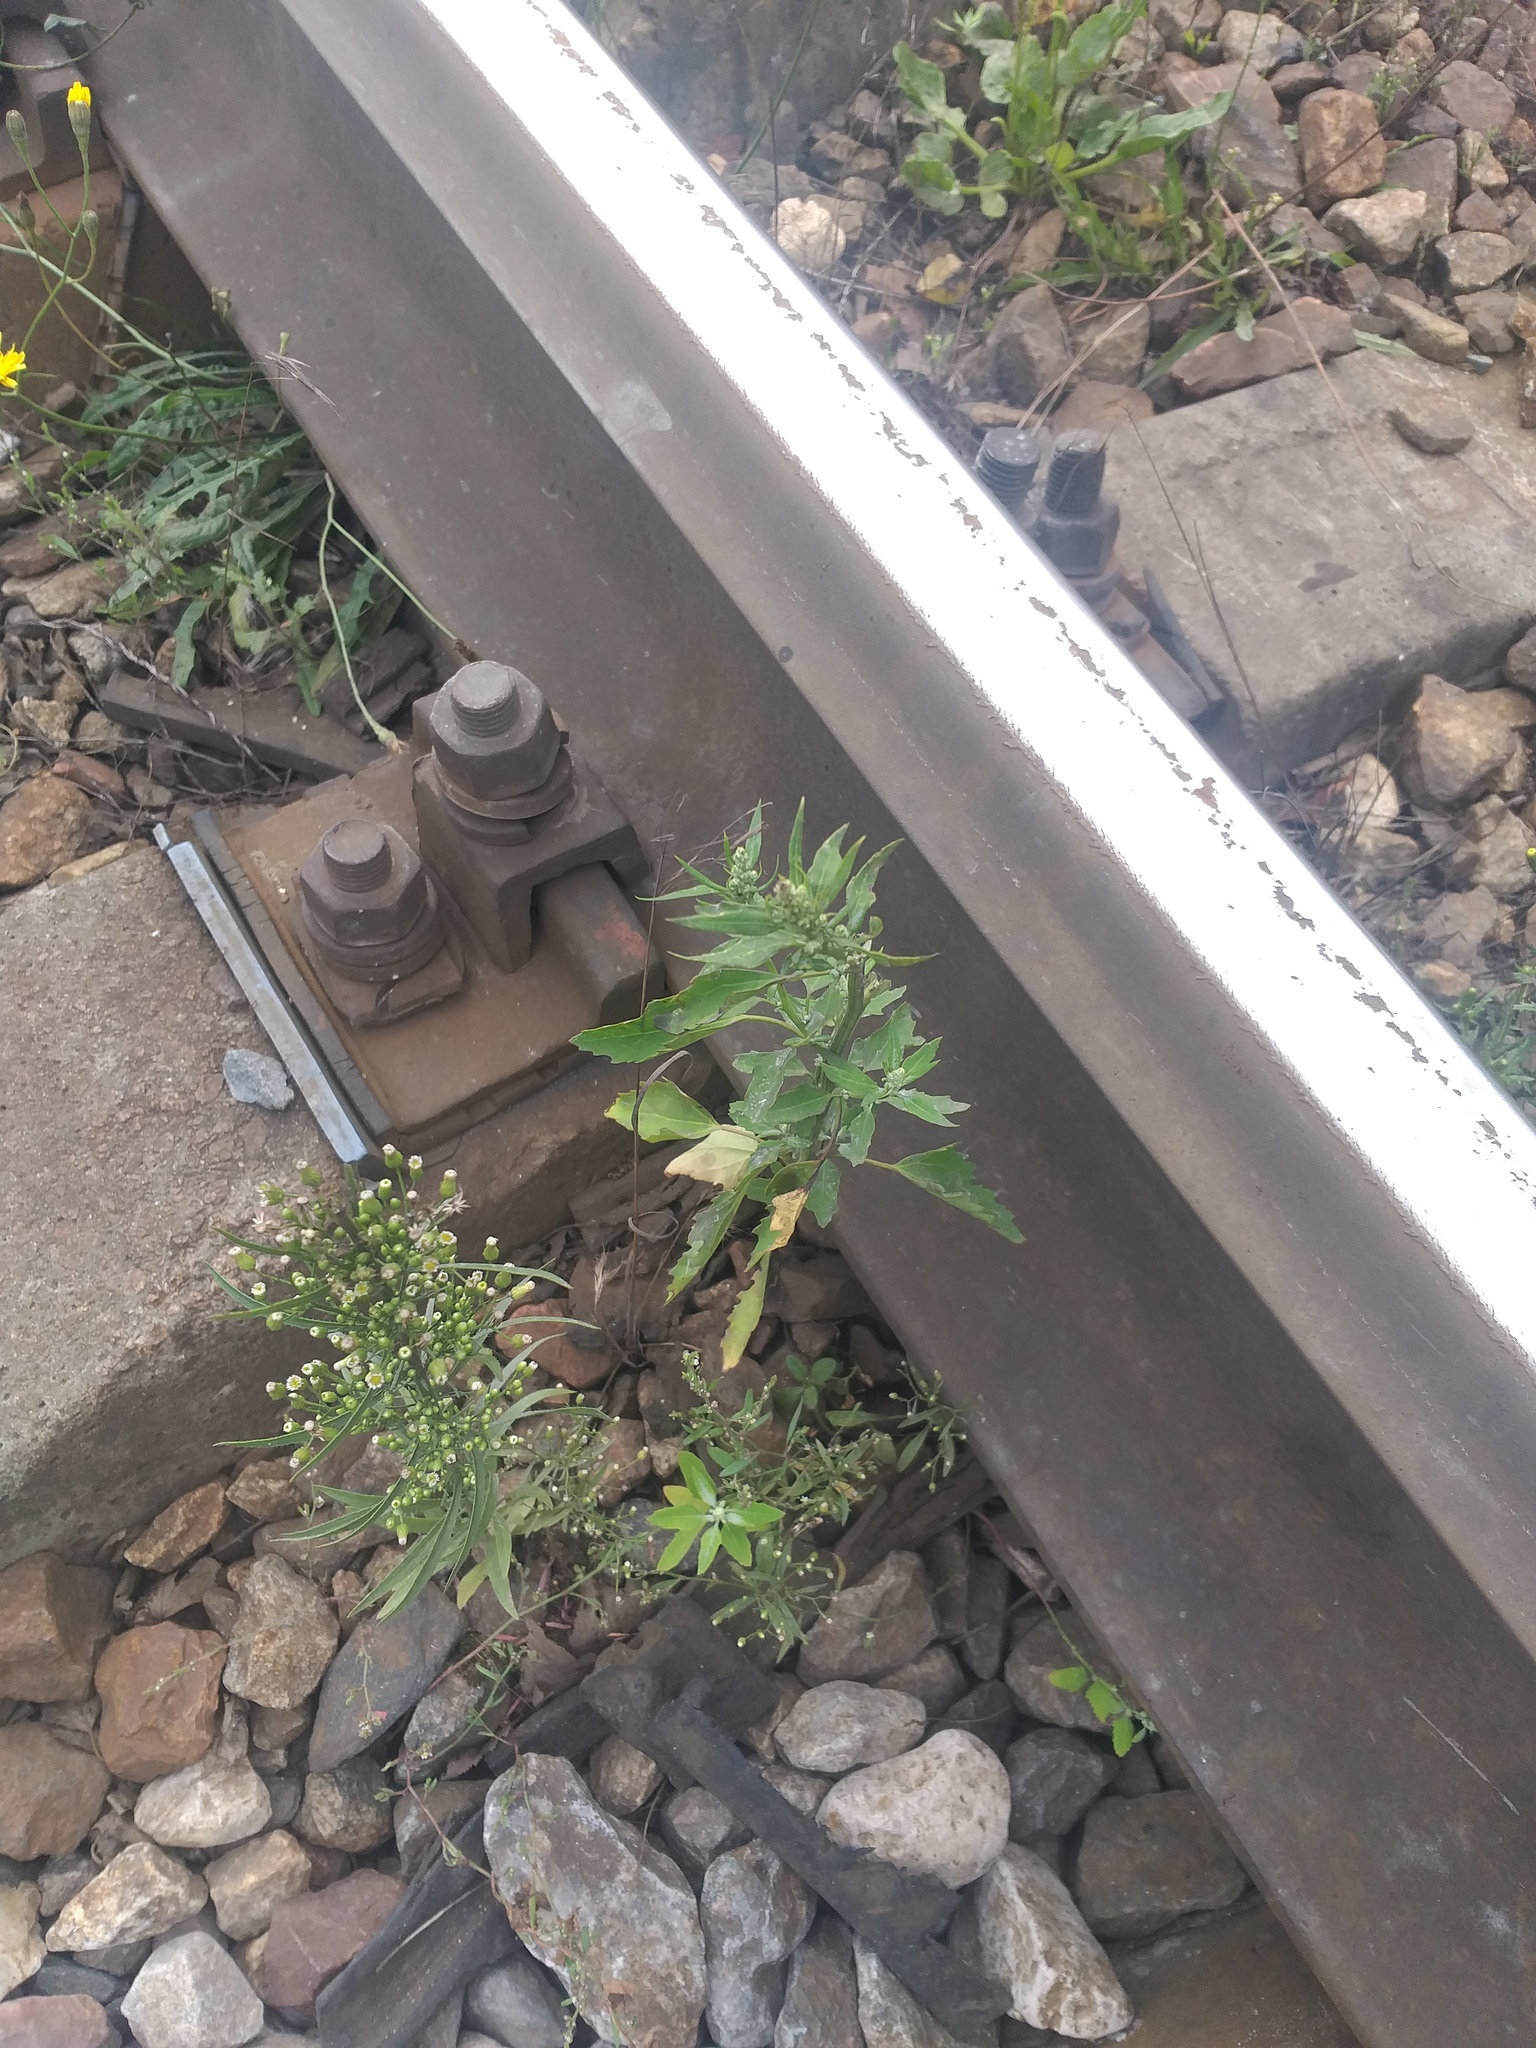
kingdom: Plantae
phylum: Tracheophyta
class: Magnoliopsida
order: Caryophyllales
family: Amaranthaceae
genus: Chenopodium
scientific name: Chenopodium album
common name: Fat-hen
